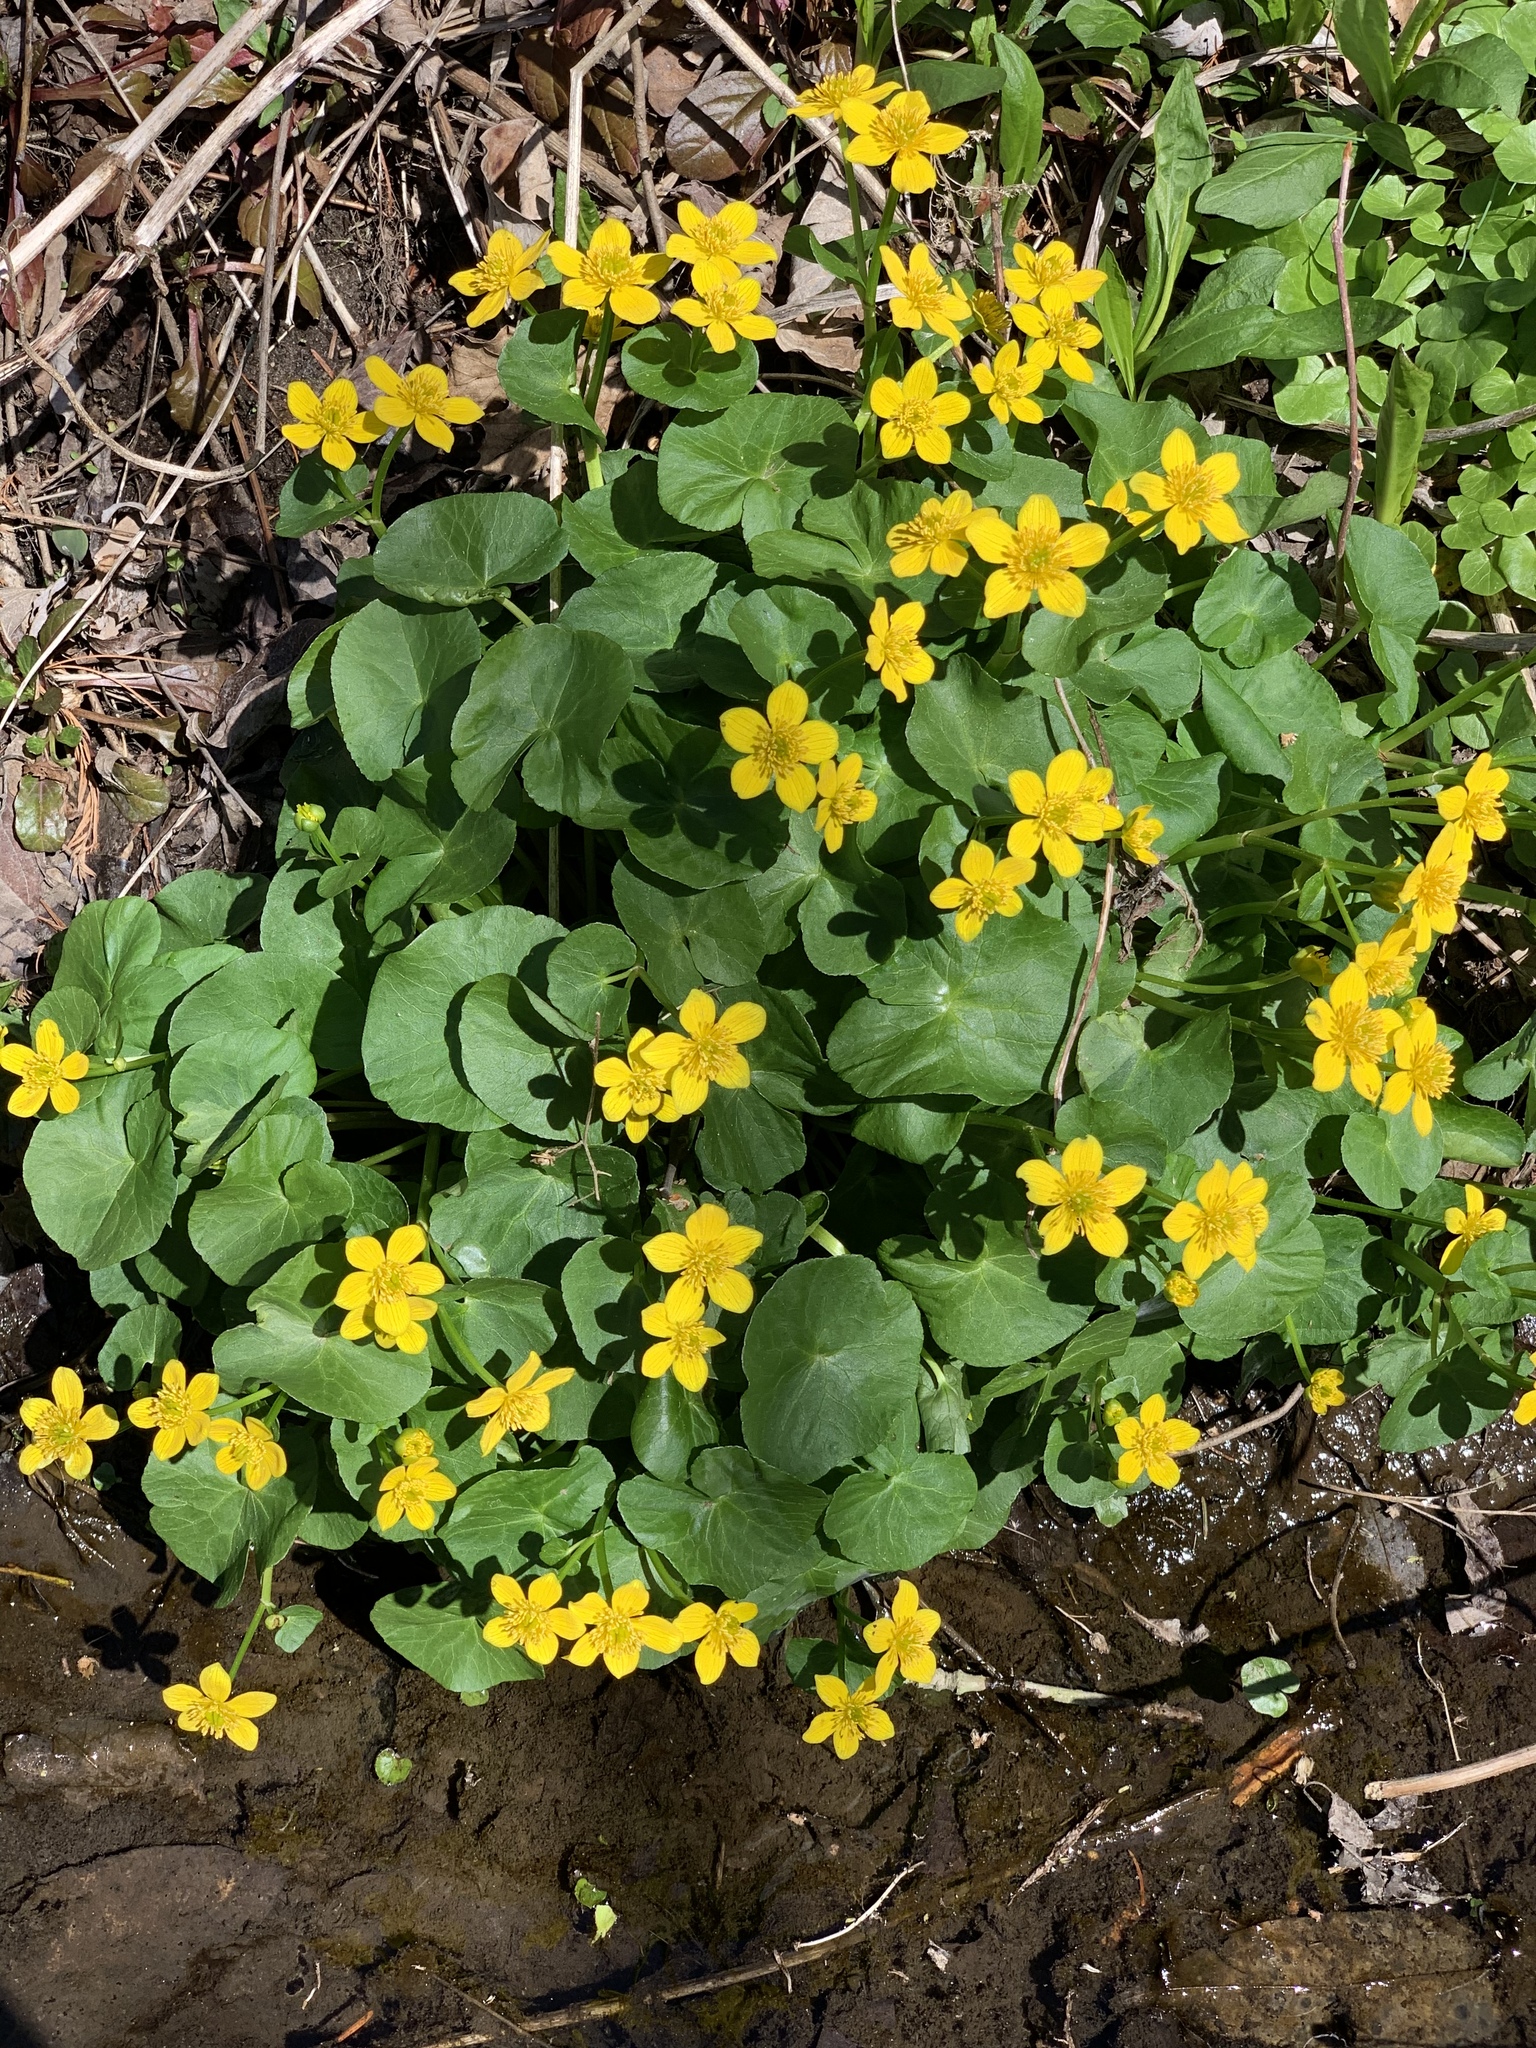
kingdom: Plantae
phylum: Tracheophyta
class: Magnoliopsida
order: Ranunculales
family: Ranunculaceae
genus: Caltha
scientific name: Caltha palustris
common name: Marsh marigold
